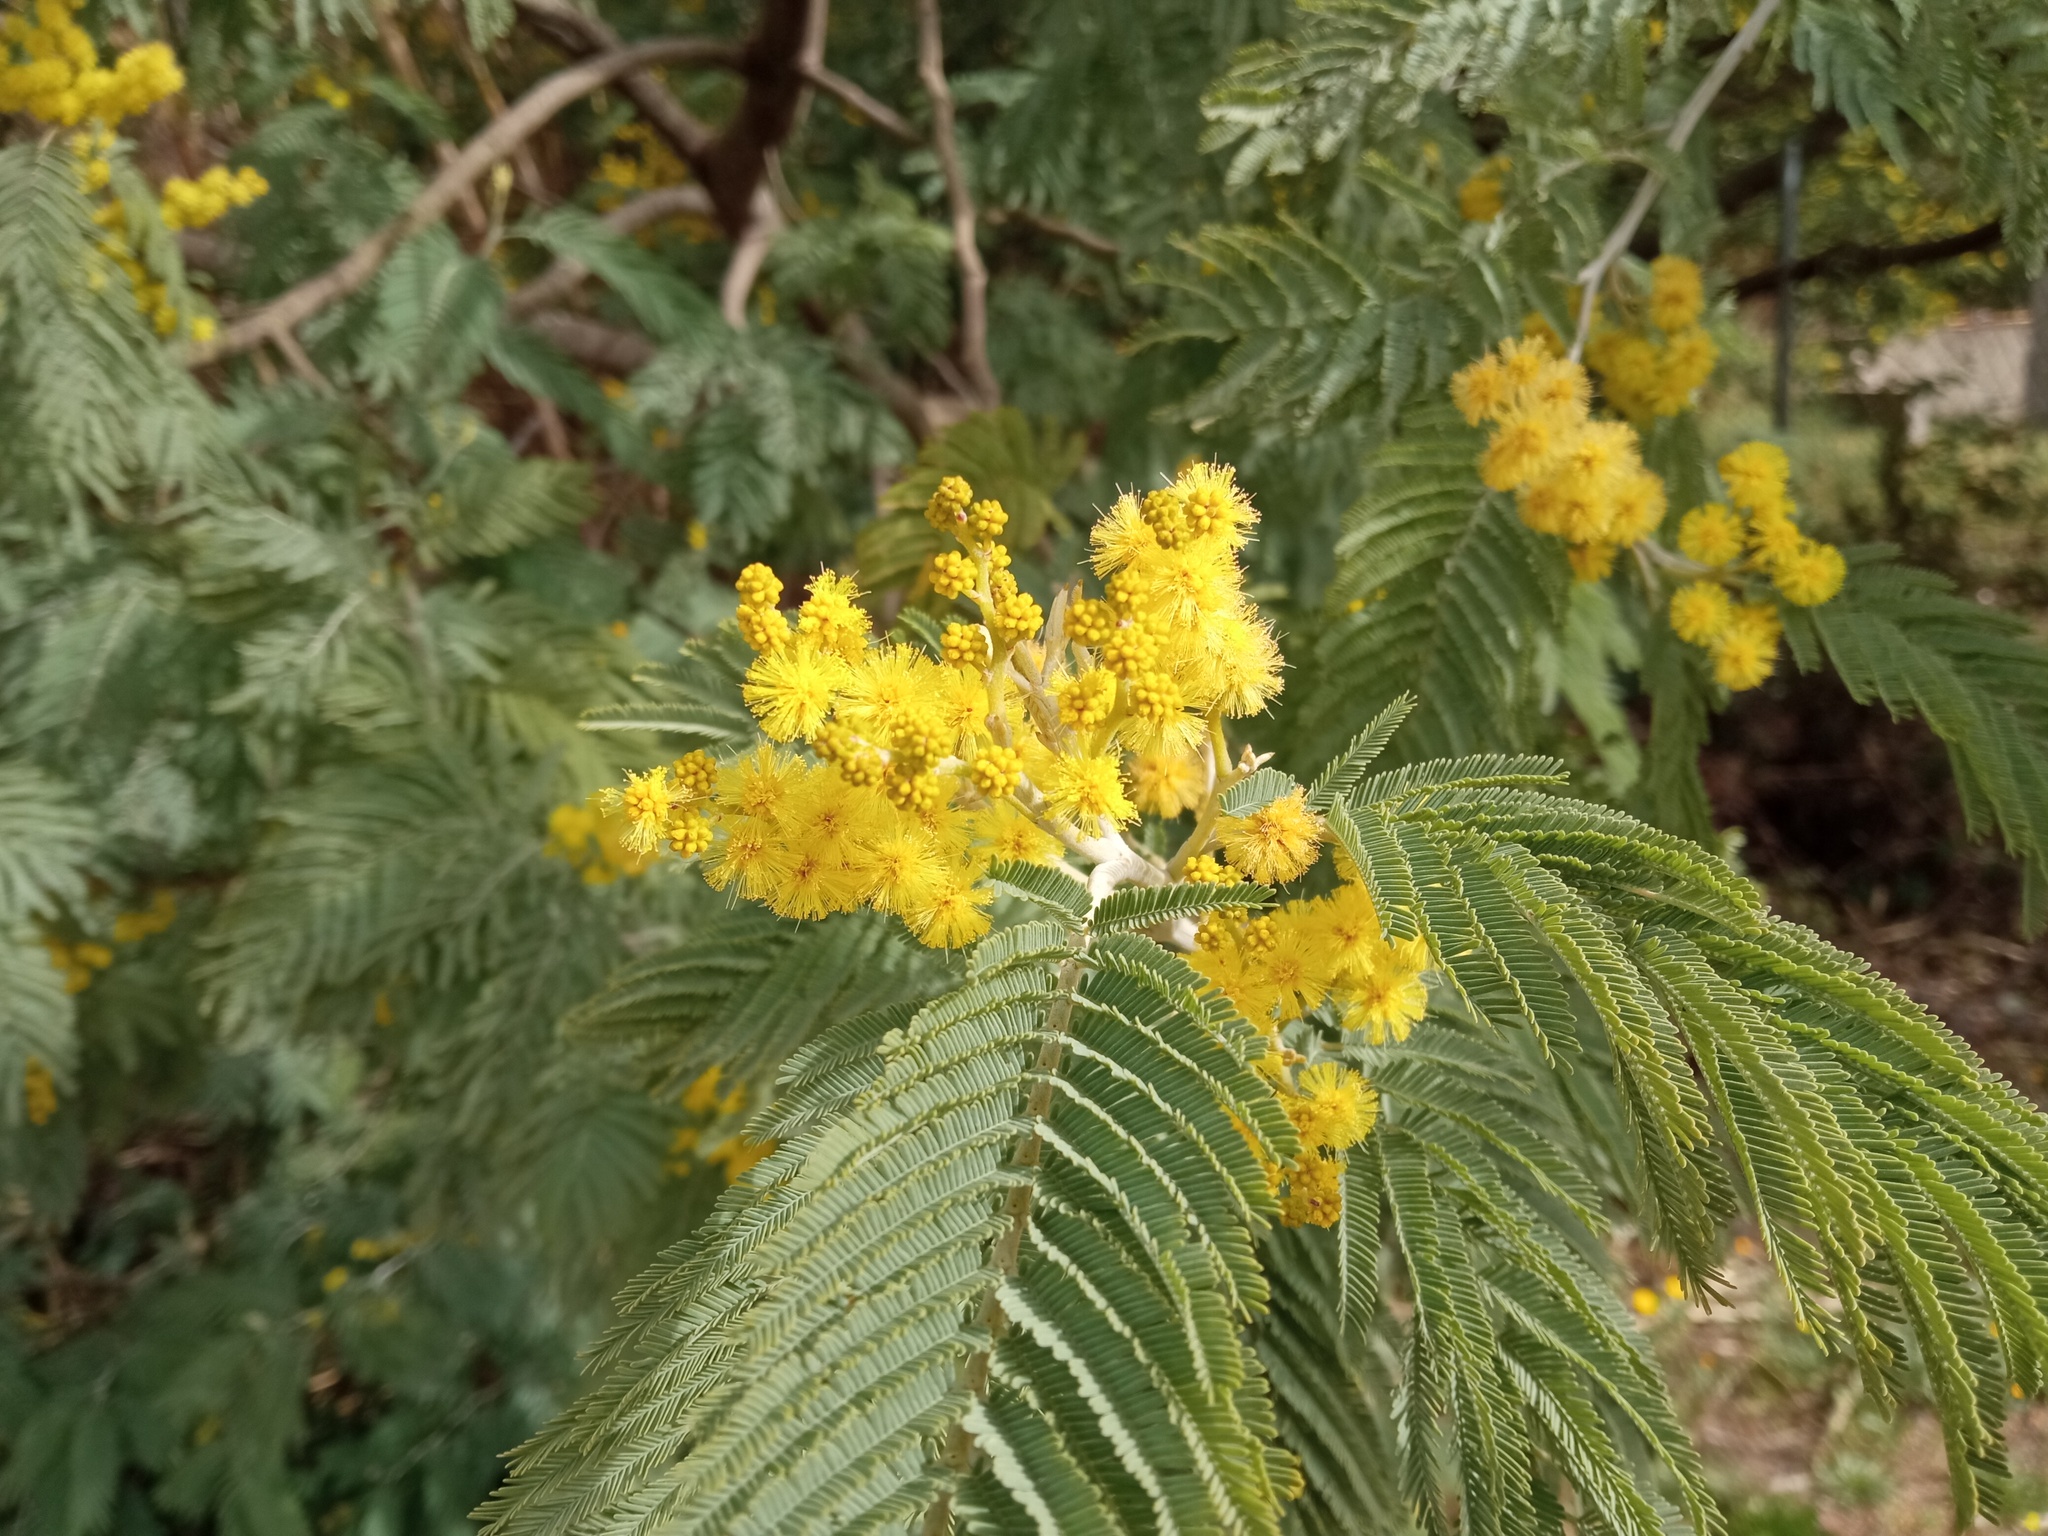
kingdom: Plantae
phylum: Tracheophyta
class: Magnoliopsida
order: Fabales
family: Fabaceae
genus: Acacia
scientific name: Acacia dealbata
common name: Silver wattle
